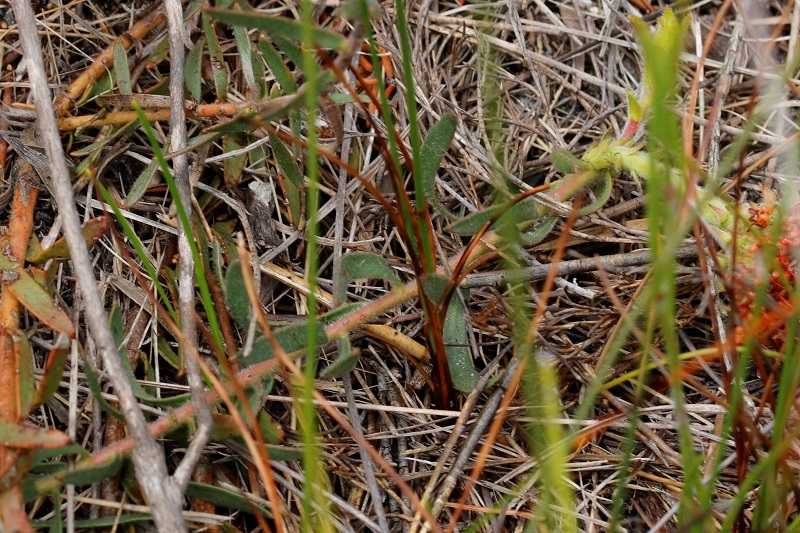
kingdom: Plantae
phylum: Tracheophyta
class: Magnoliopsida
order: Proteales
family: Proteaceae
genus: Leucospermum
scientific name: Leucospermum prostratum
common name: Yellow-trailing pincushion
